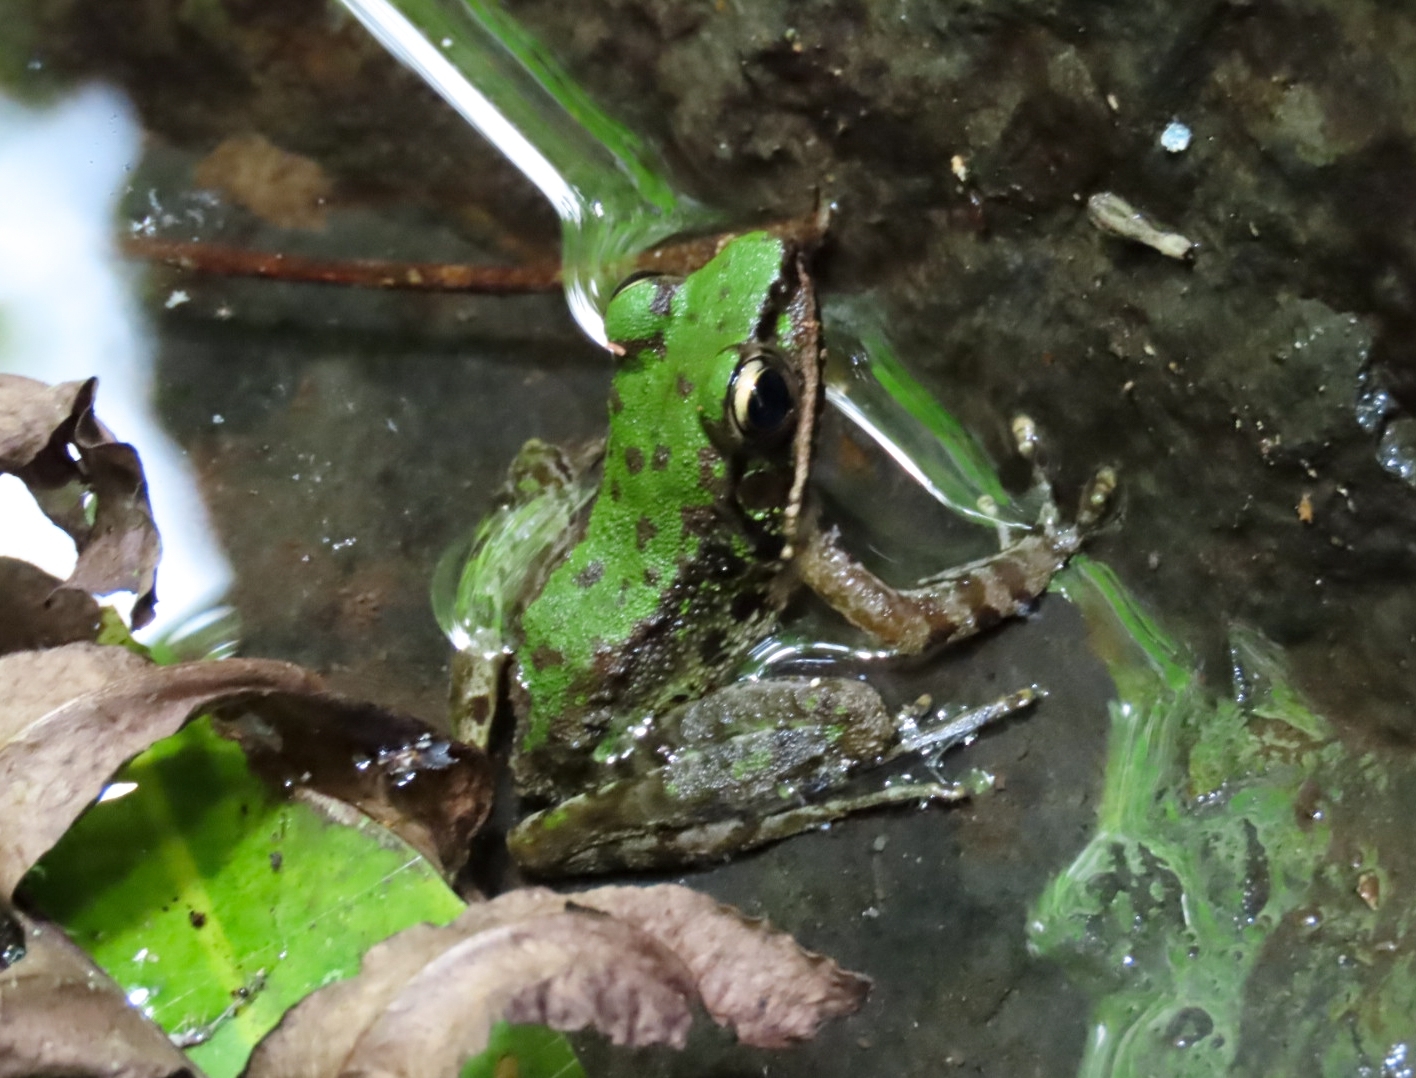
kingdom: Animalia
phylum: Chordata
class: Amphibia
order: Anura
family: Ranidae
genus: Odorrana
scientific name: Odorrana swinhoana
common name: Bangkimtsing frog
